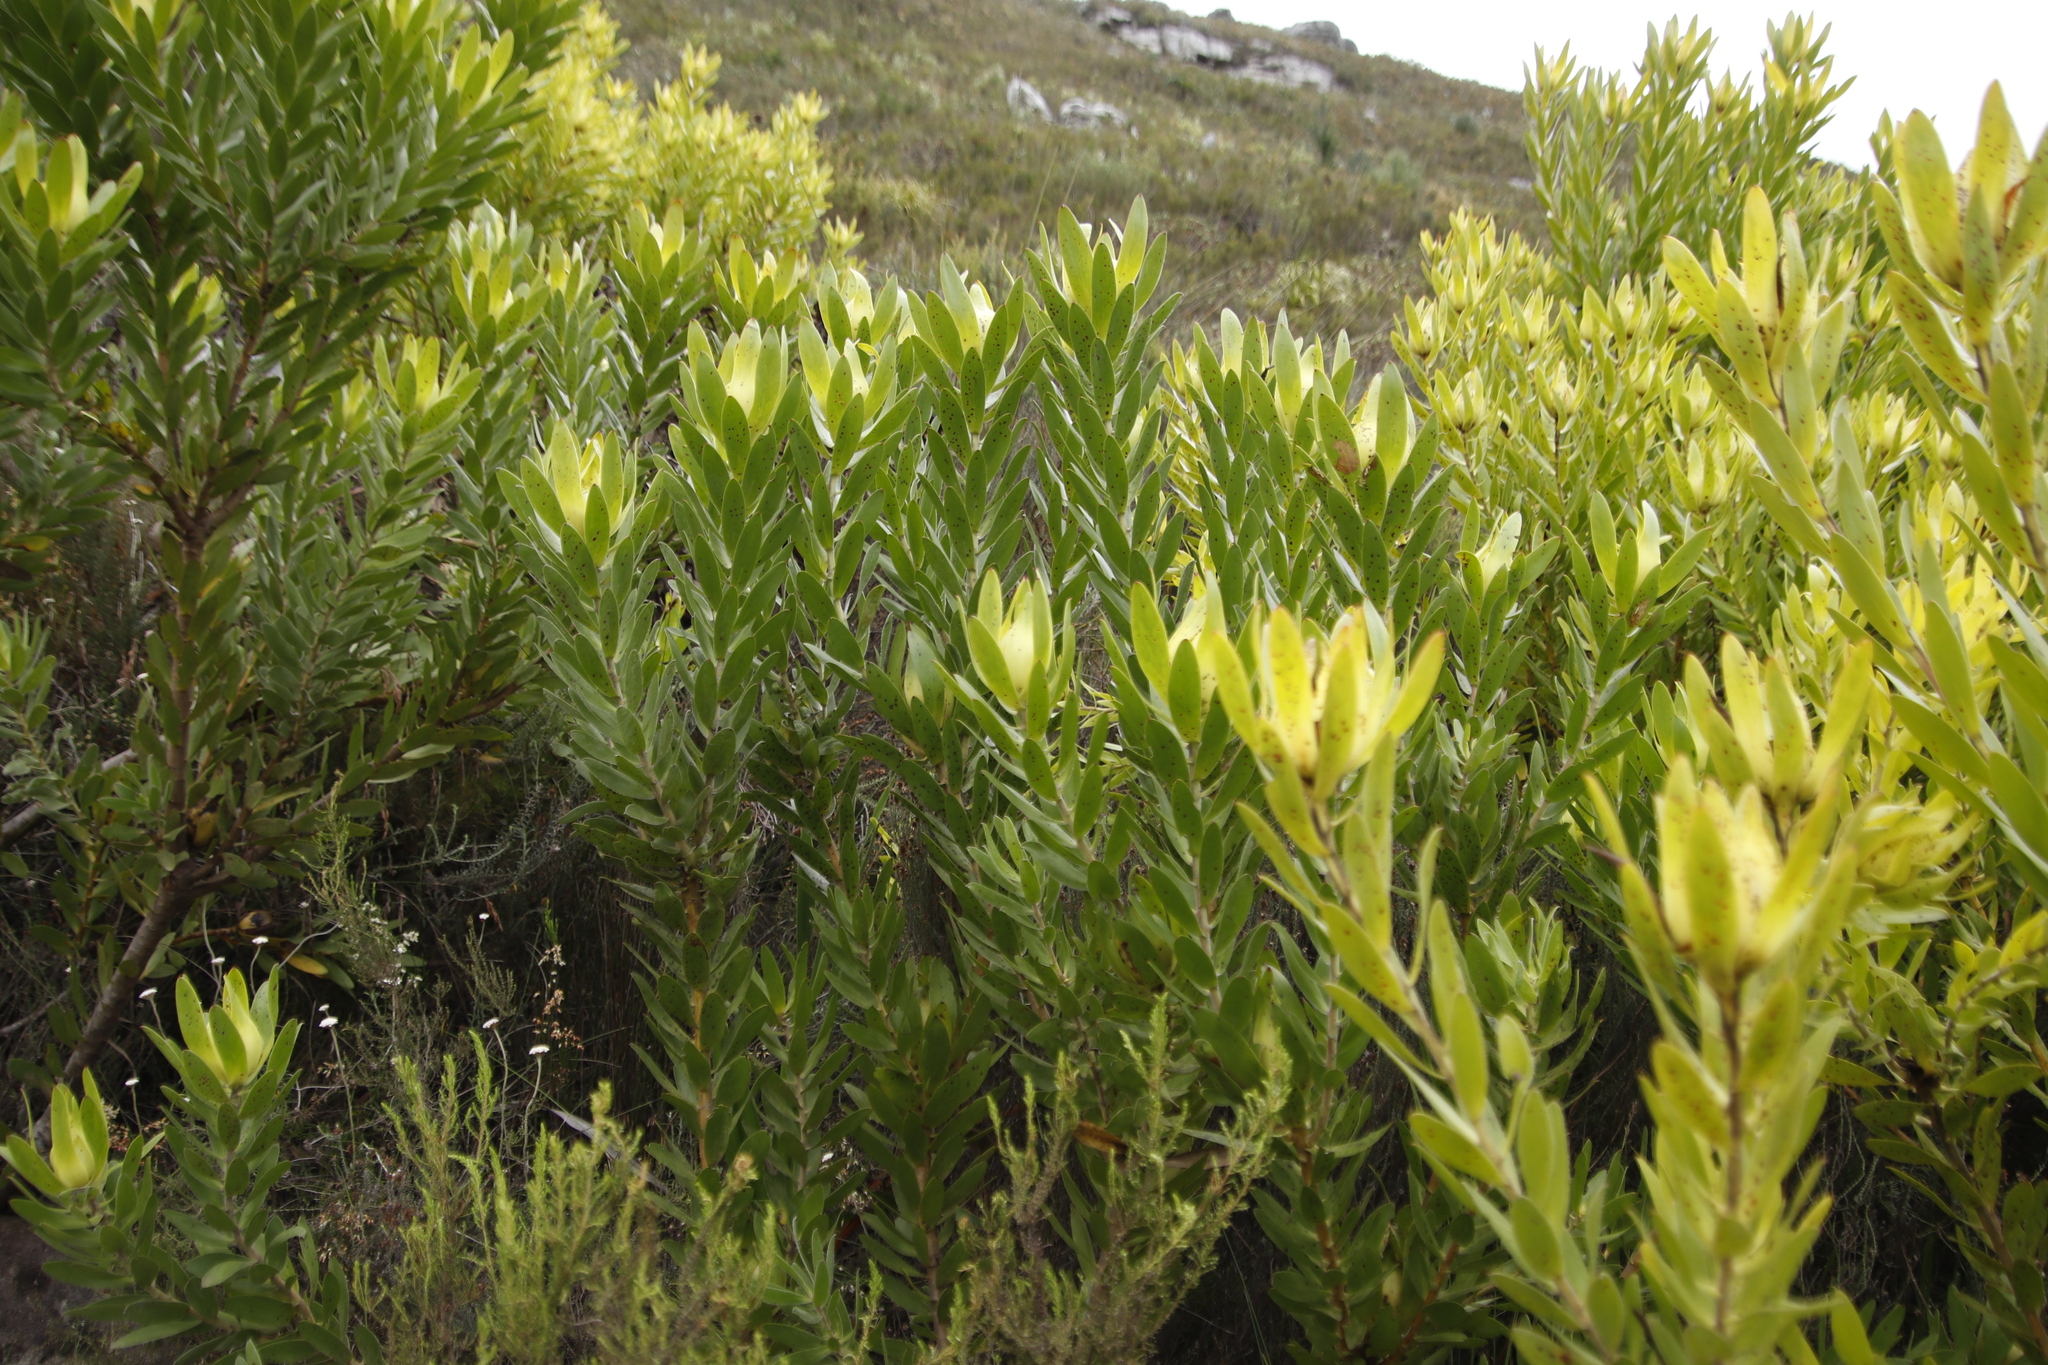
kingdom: Plantae
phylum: Tracheophyta
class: Magnoliopsida
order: Proteales
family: Proteaceae
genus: Leucadendron
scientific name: Leucadendron laureolum
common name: Golden sunshinebush
